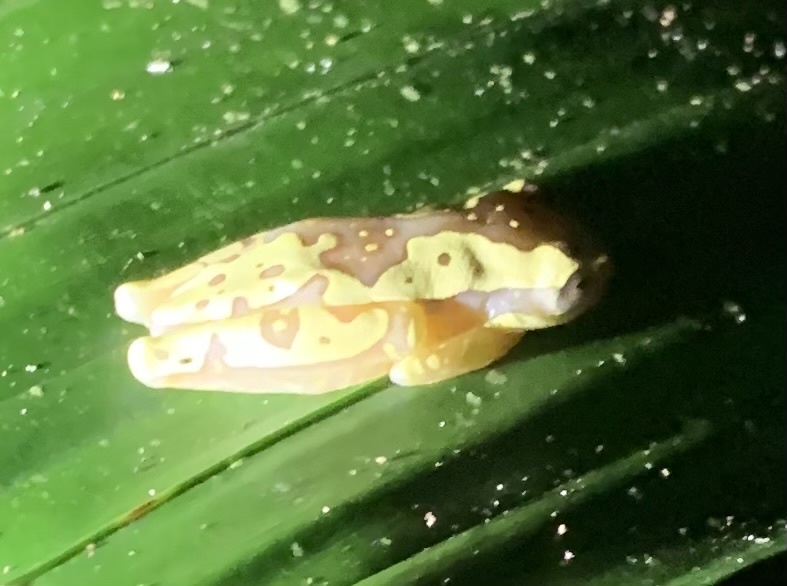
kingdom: Animalia
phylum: Chordata
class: Amphibia
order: Anura
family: Hylidae
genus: Dendropsophus
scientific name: Dendropsophus ebraccatus
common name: Hourglass treefrog
